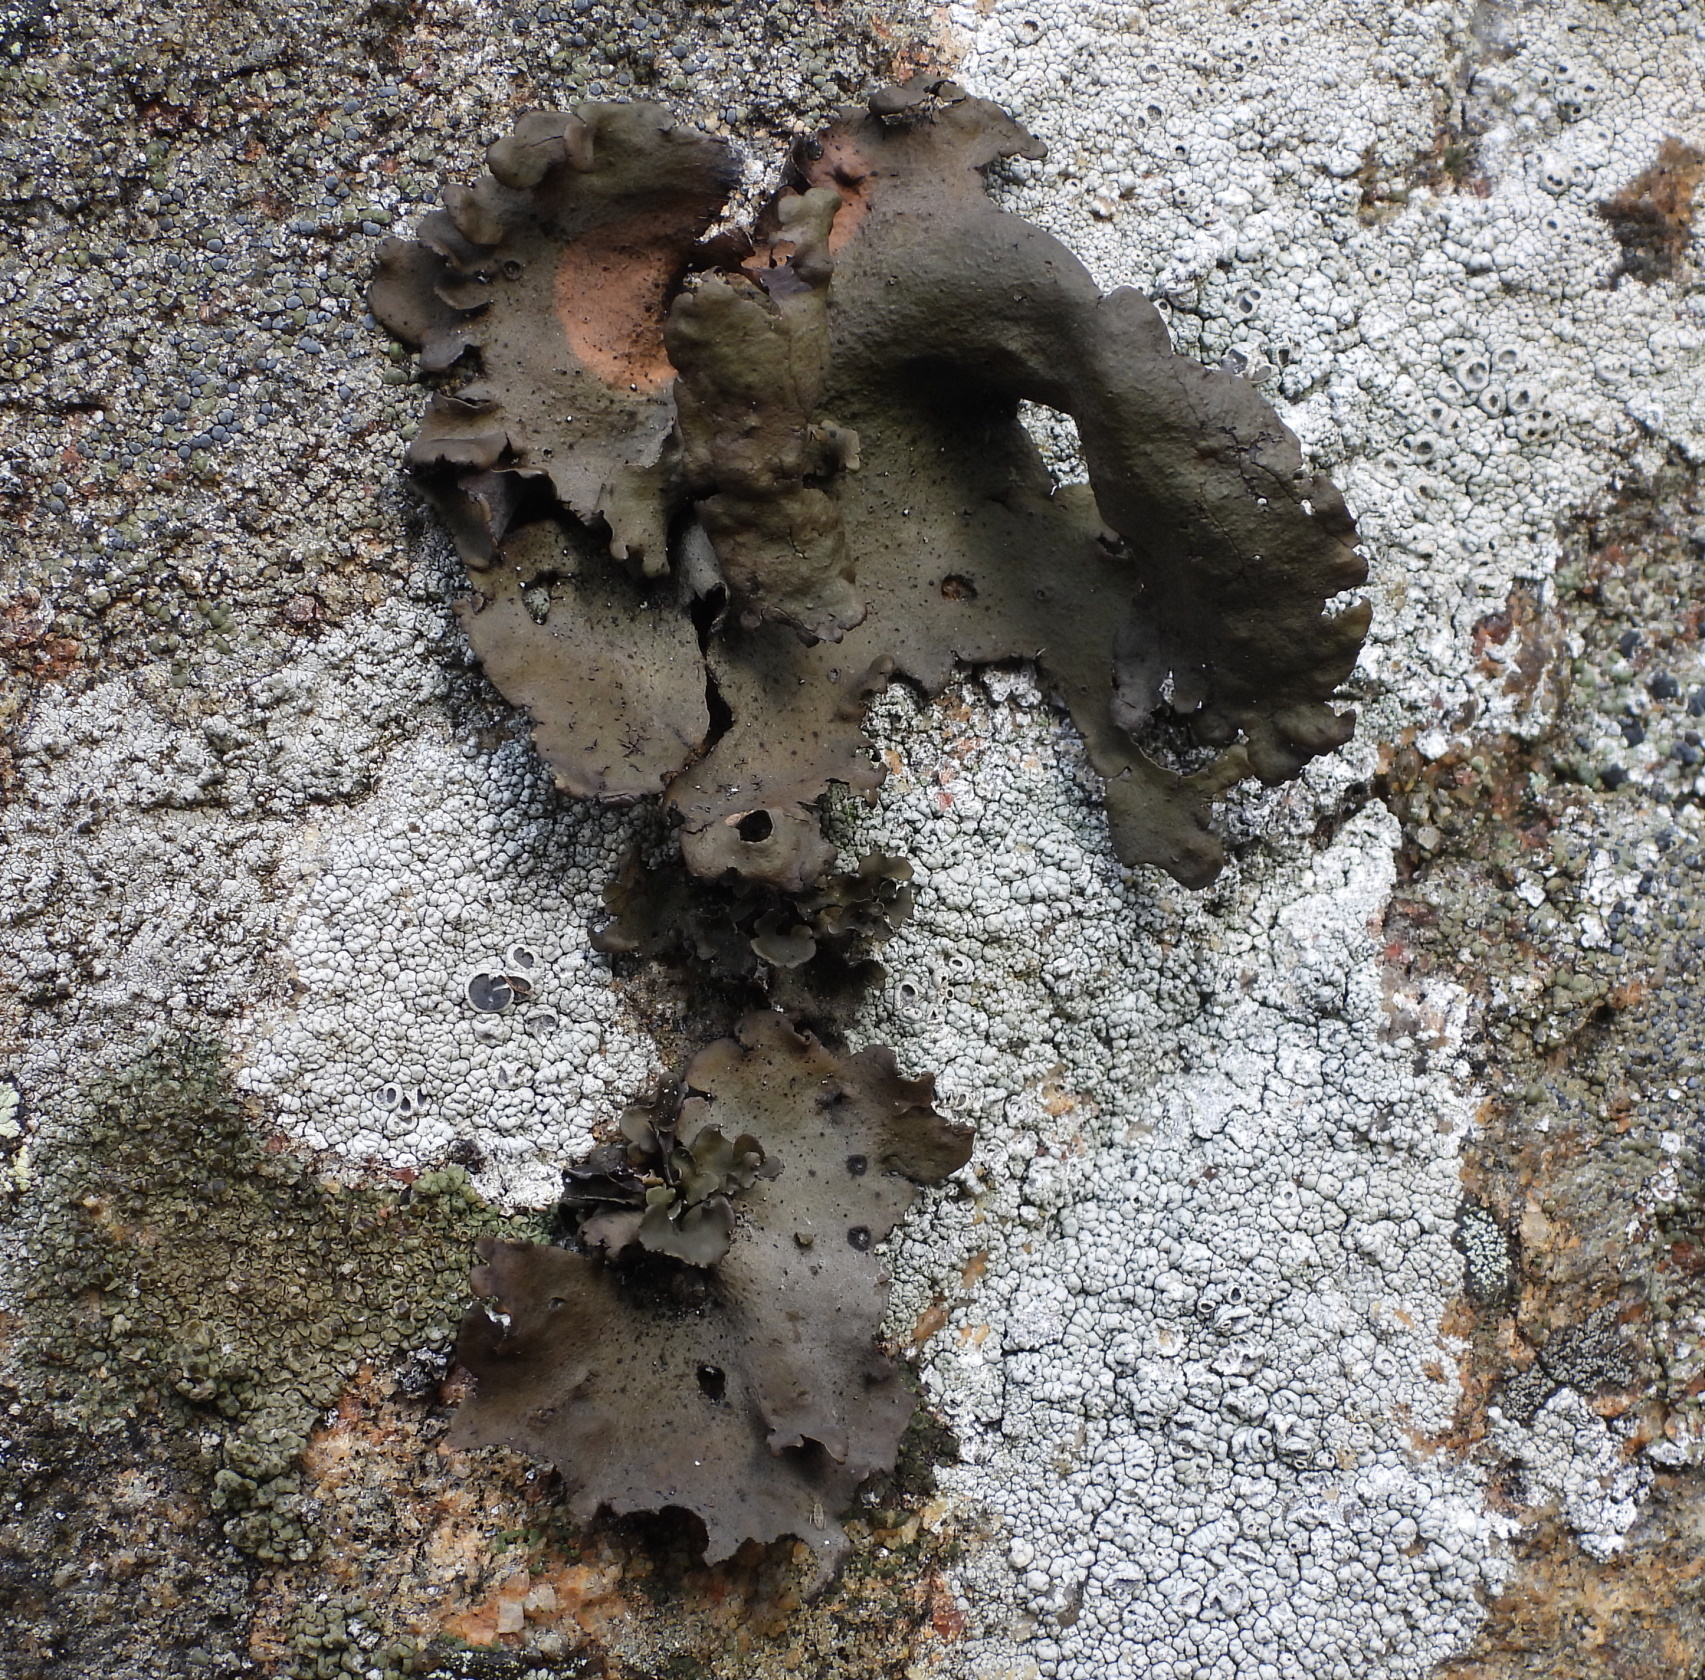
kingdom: Fungi
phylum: Ascomycota
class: Lecanoromycetes
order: Umbilicariales
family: Umbilicariaceae
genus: Umbilicaria
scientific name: Umbilicaria polyphylla
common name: Petalled rocktripe lichen
